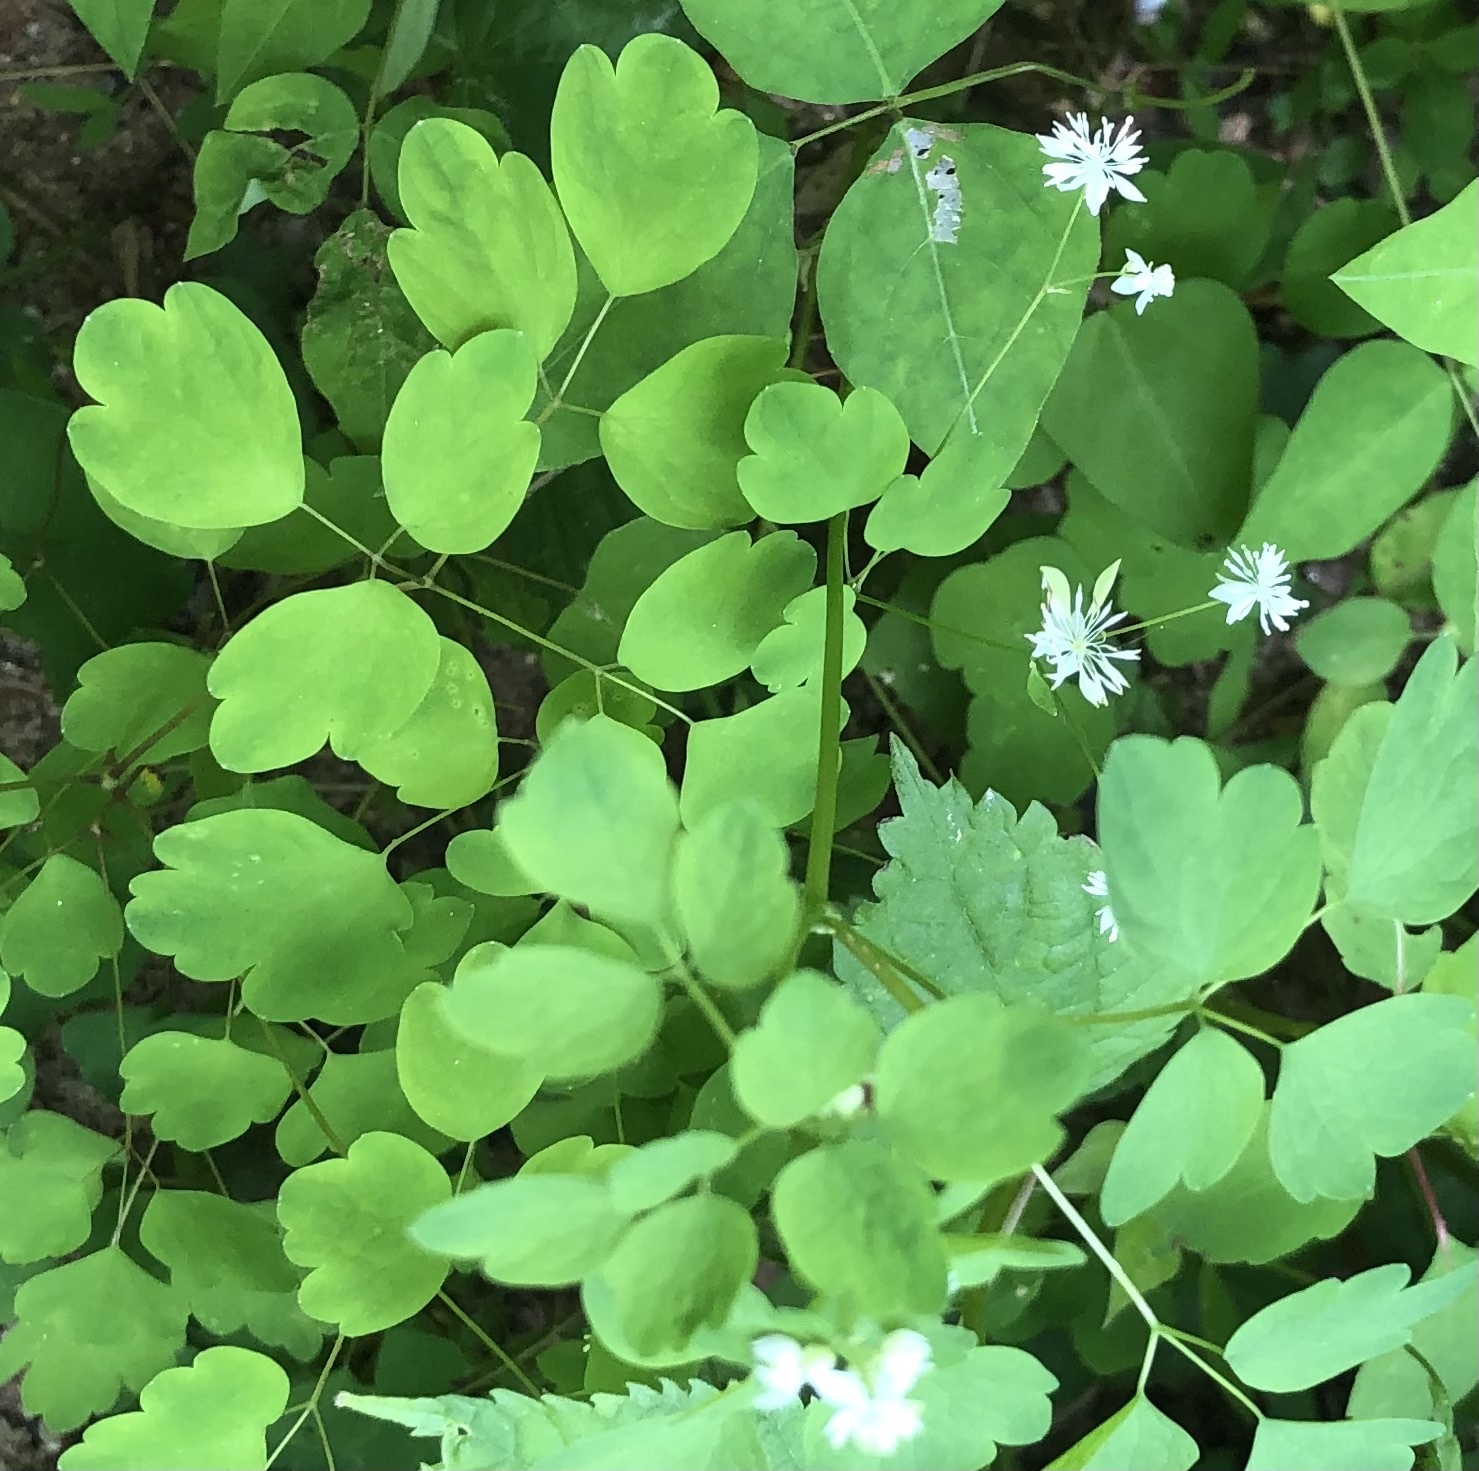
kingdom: Plantae
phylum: Tracheophyta
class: Magnoliopsida
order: Ranunculales
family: Ranunculaceae
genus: Thalictrum
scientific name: Thalictrum clavatum
